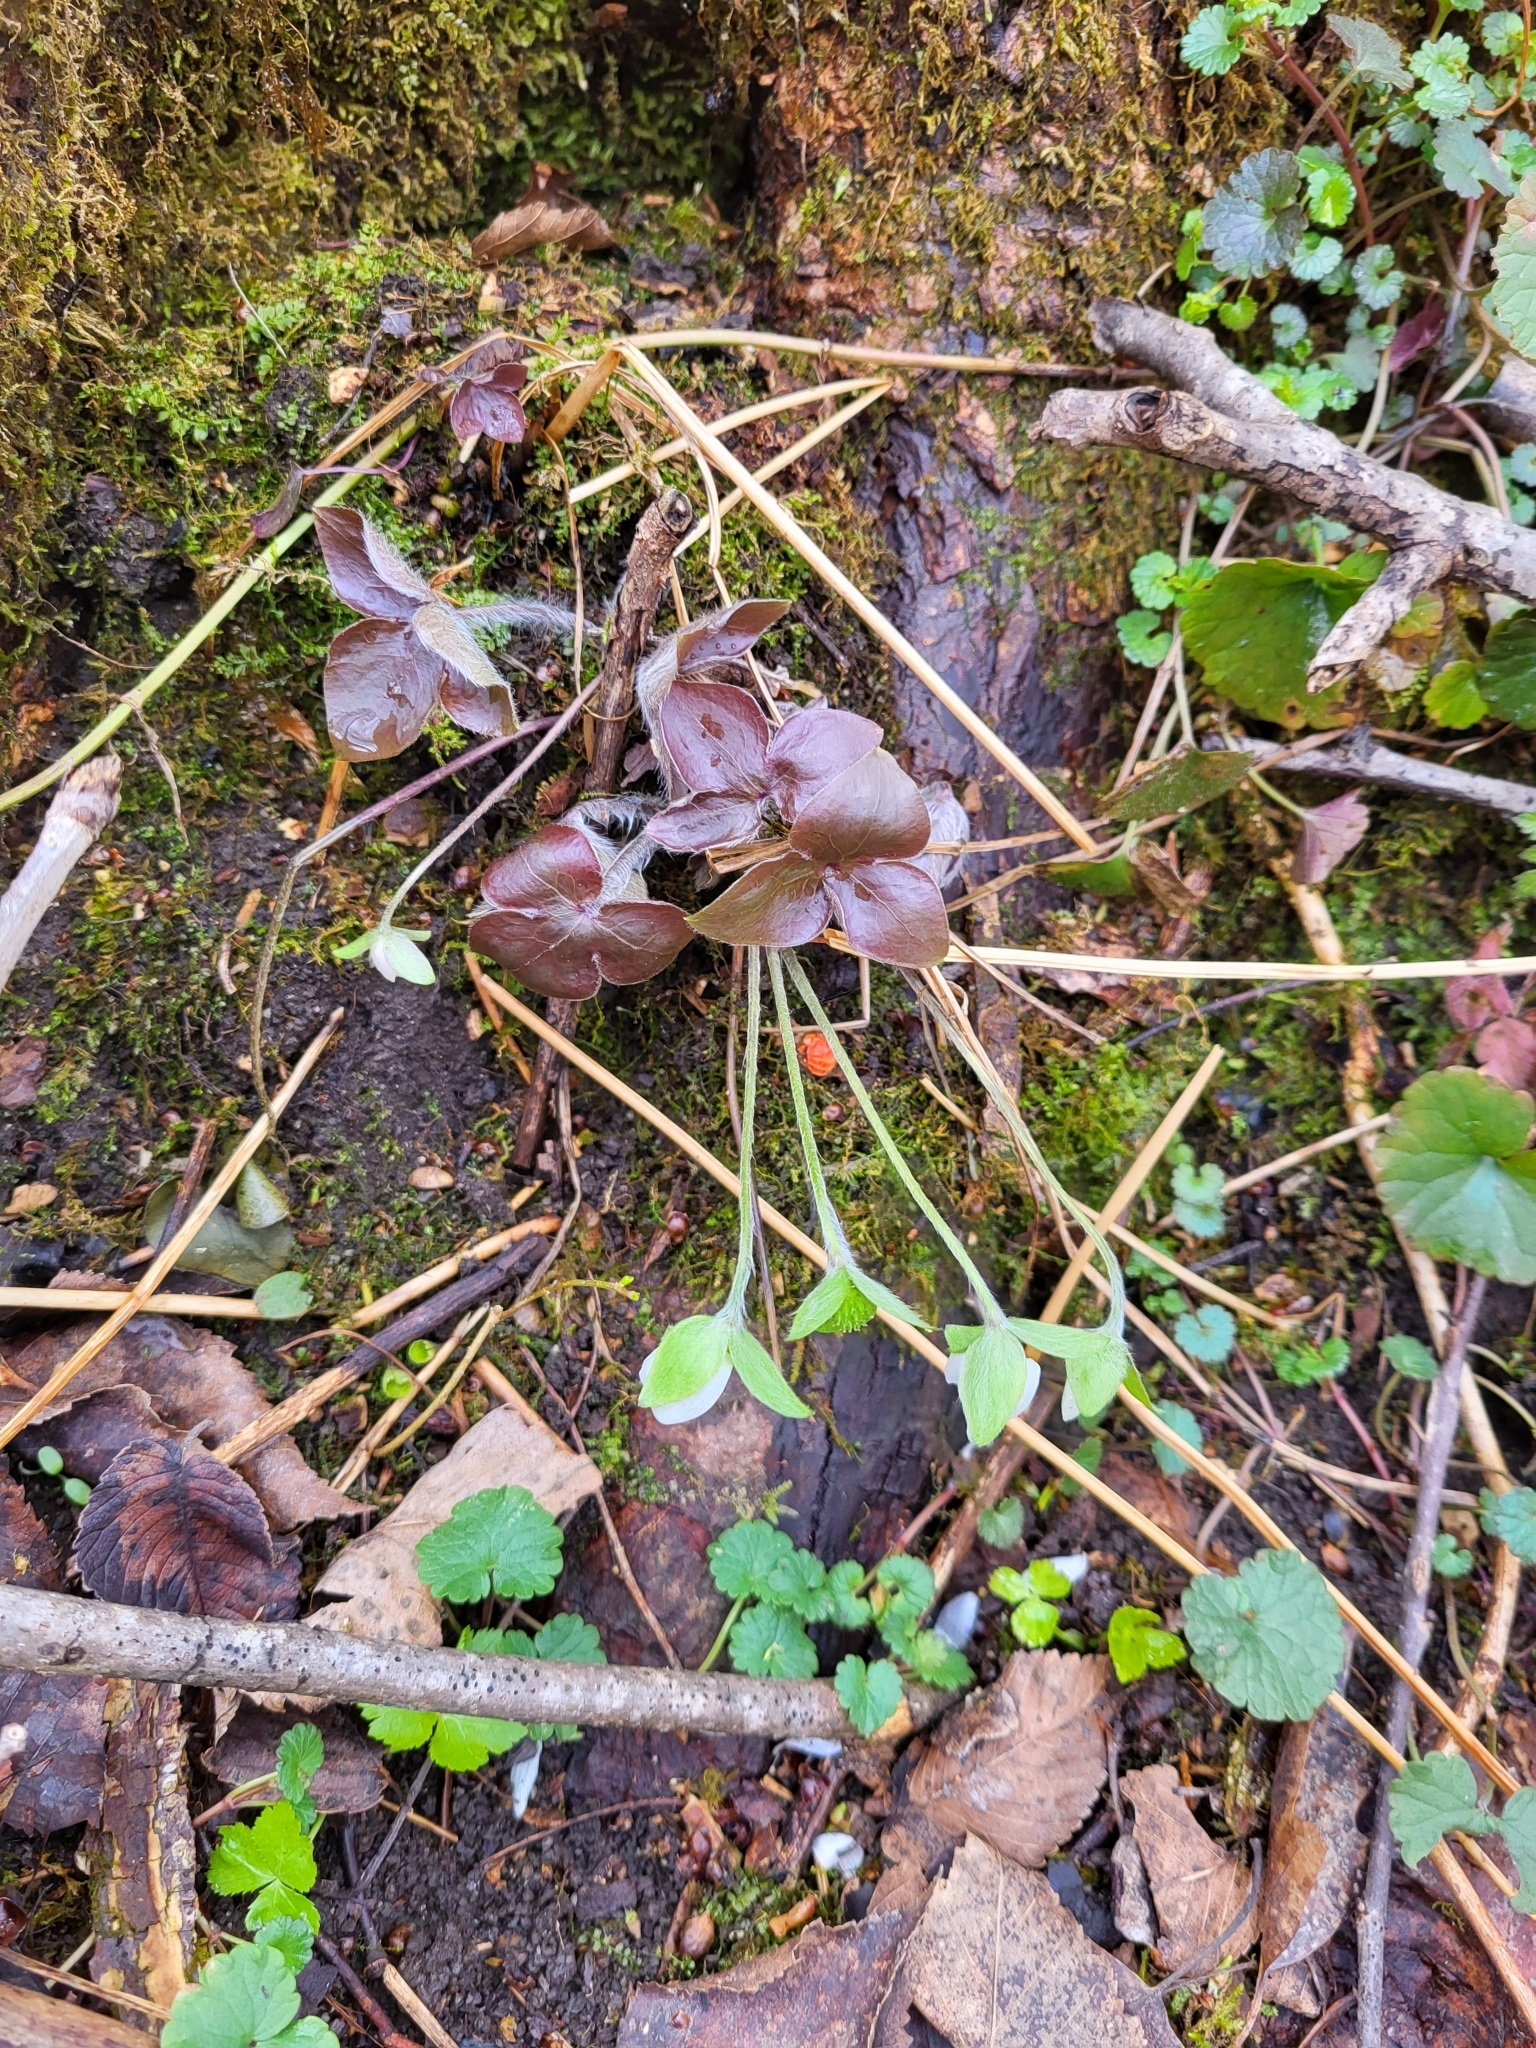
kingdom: Plantae
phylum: Tracheophyta
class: Magnoliopsida
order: Ranunculales
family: Ranunculaceae
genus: Hepatica
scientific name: Hepatica acutiloba
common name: Sharp-lobed hepatica
